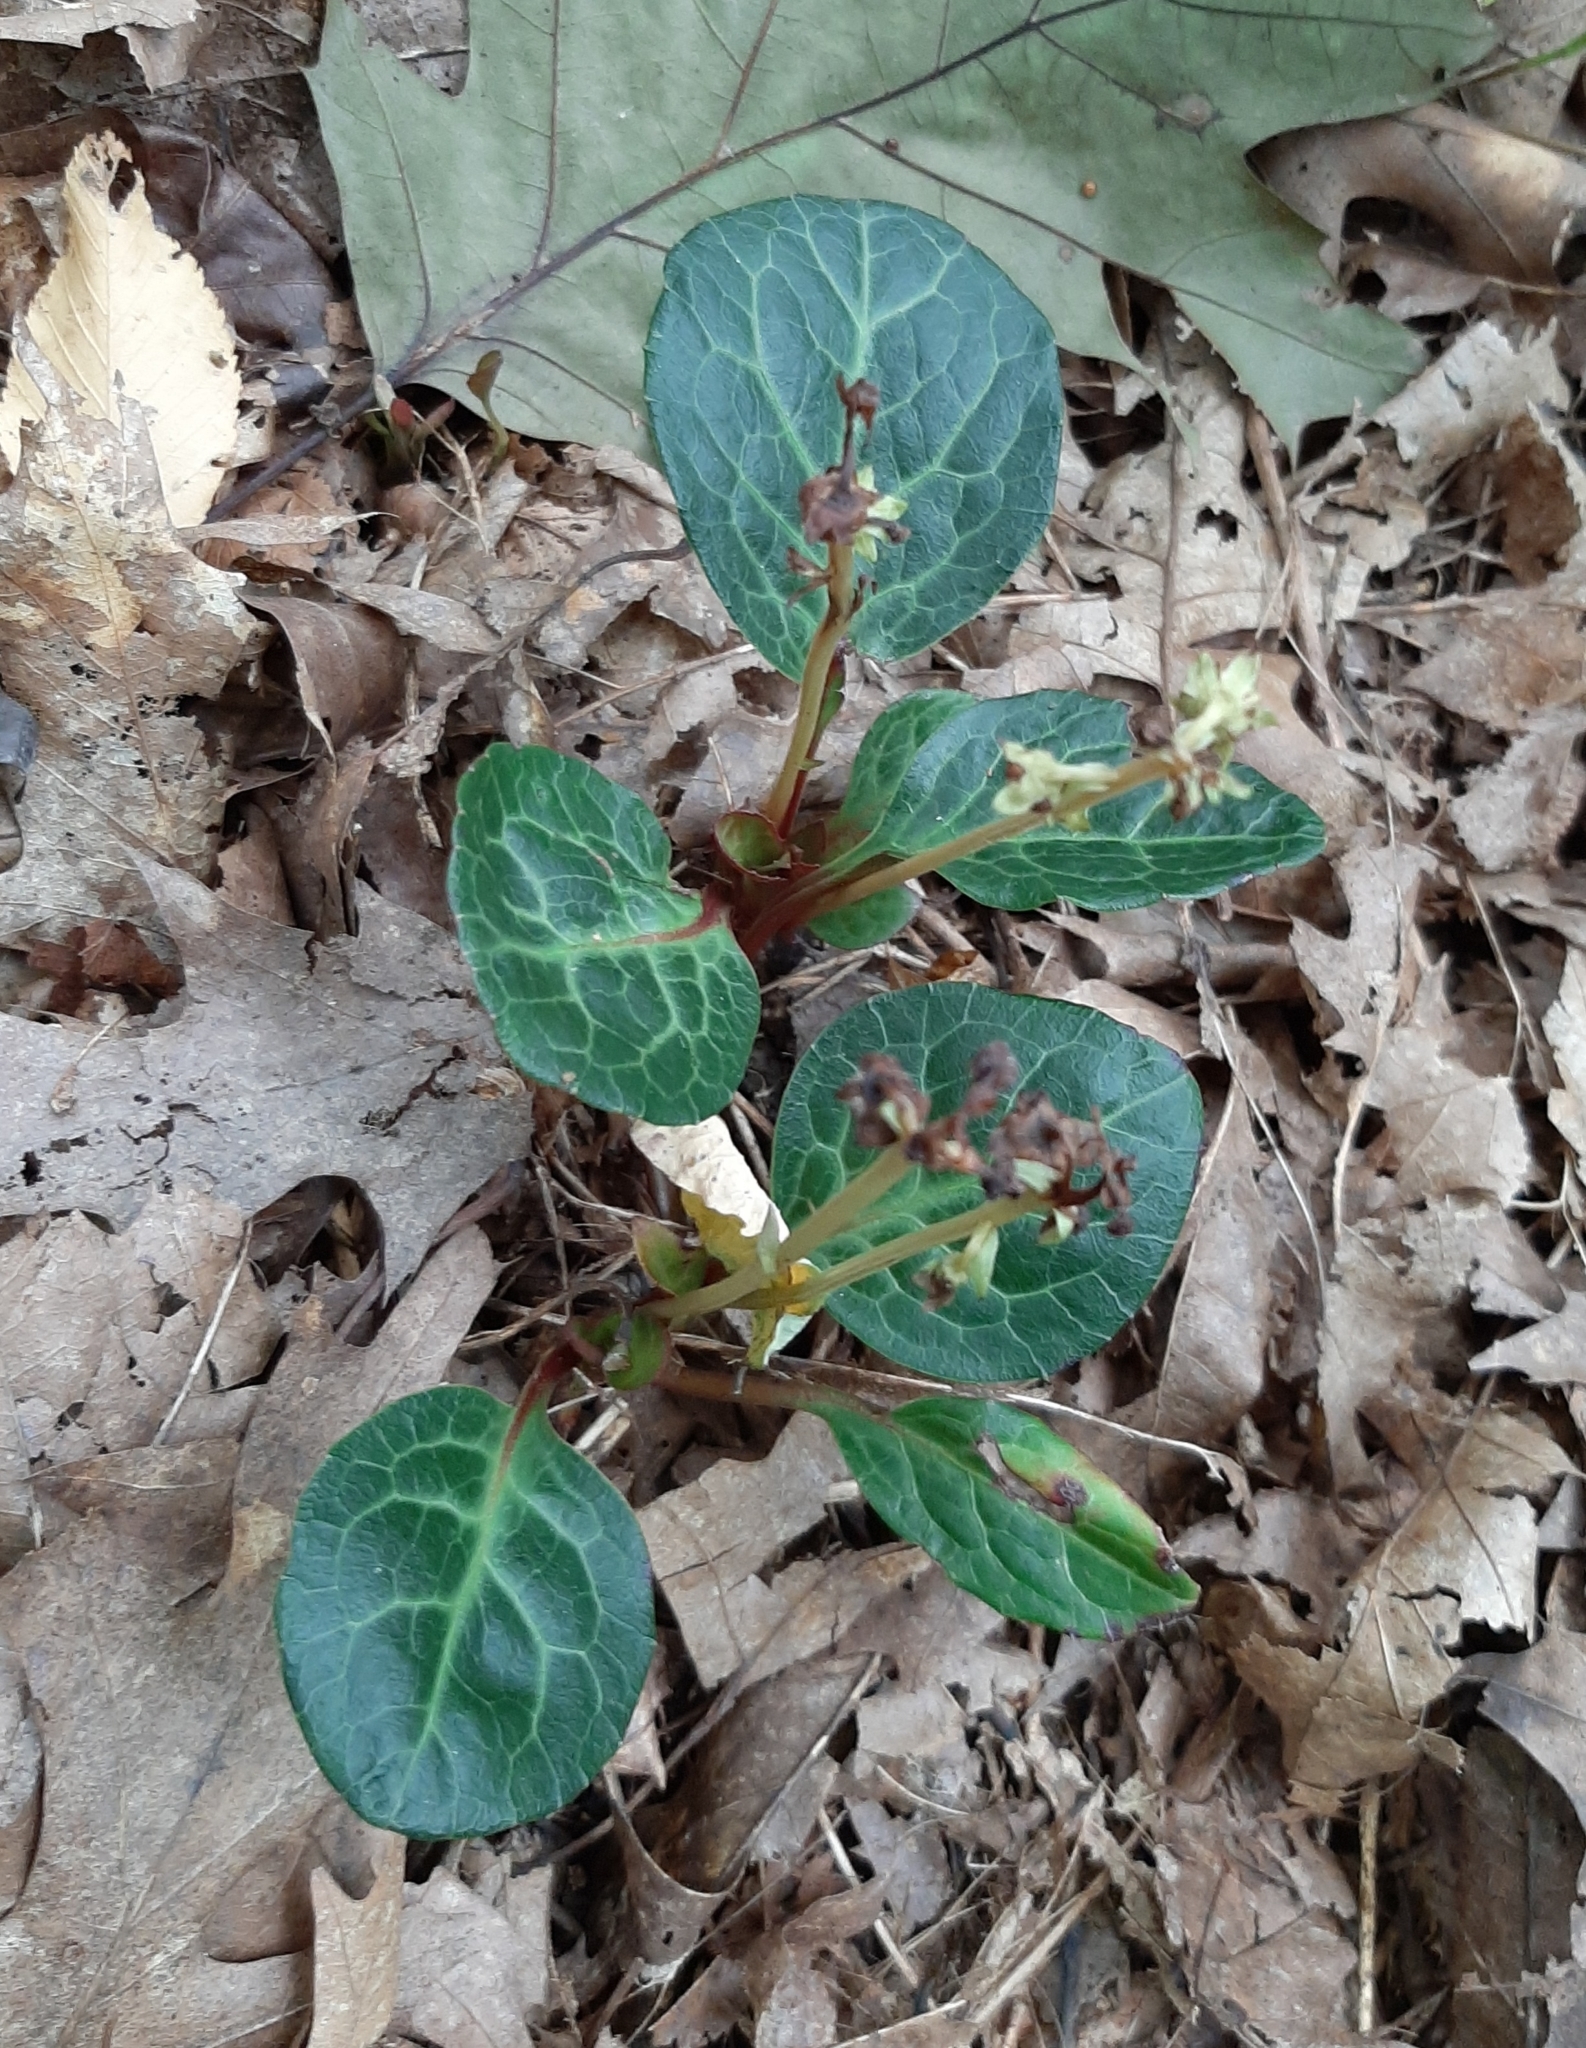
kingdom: Plantae
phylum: Tracheophyta
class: Magnoliopsida
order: Ericales
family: Ericaceae
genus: Pyrola
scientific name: Pyrola americana
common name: American wintergreen
